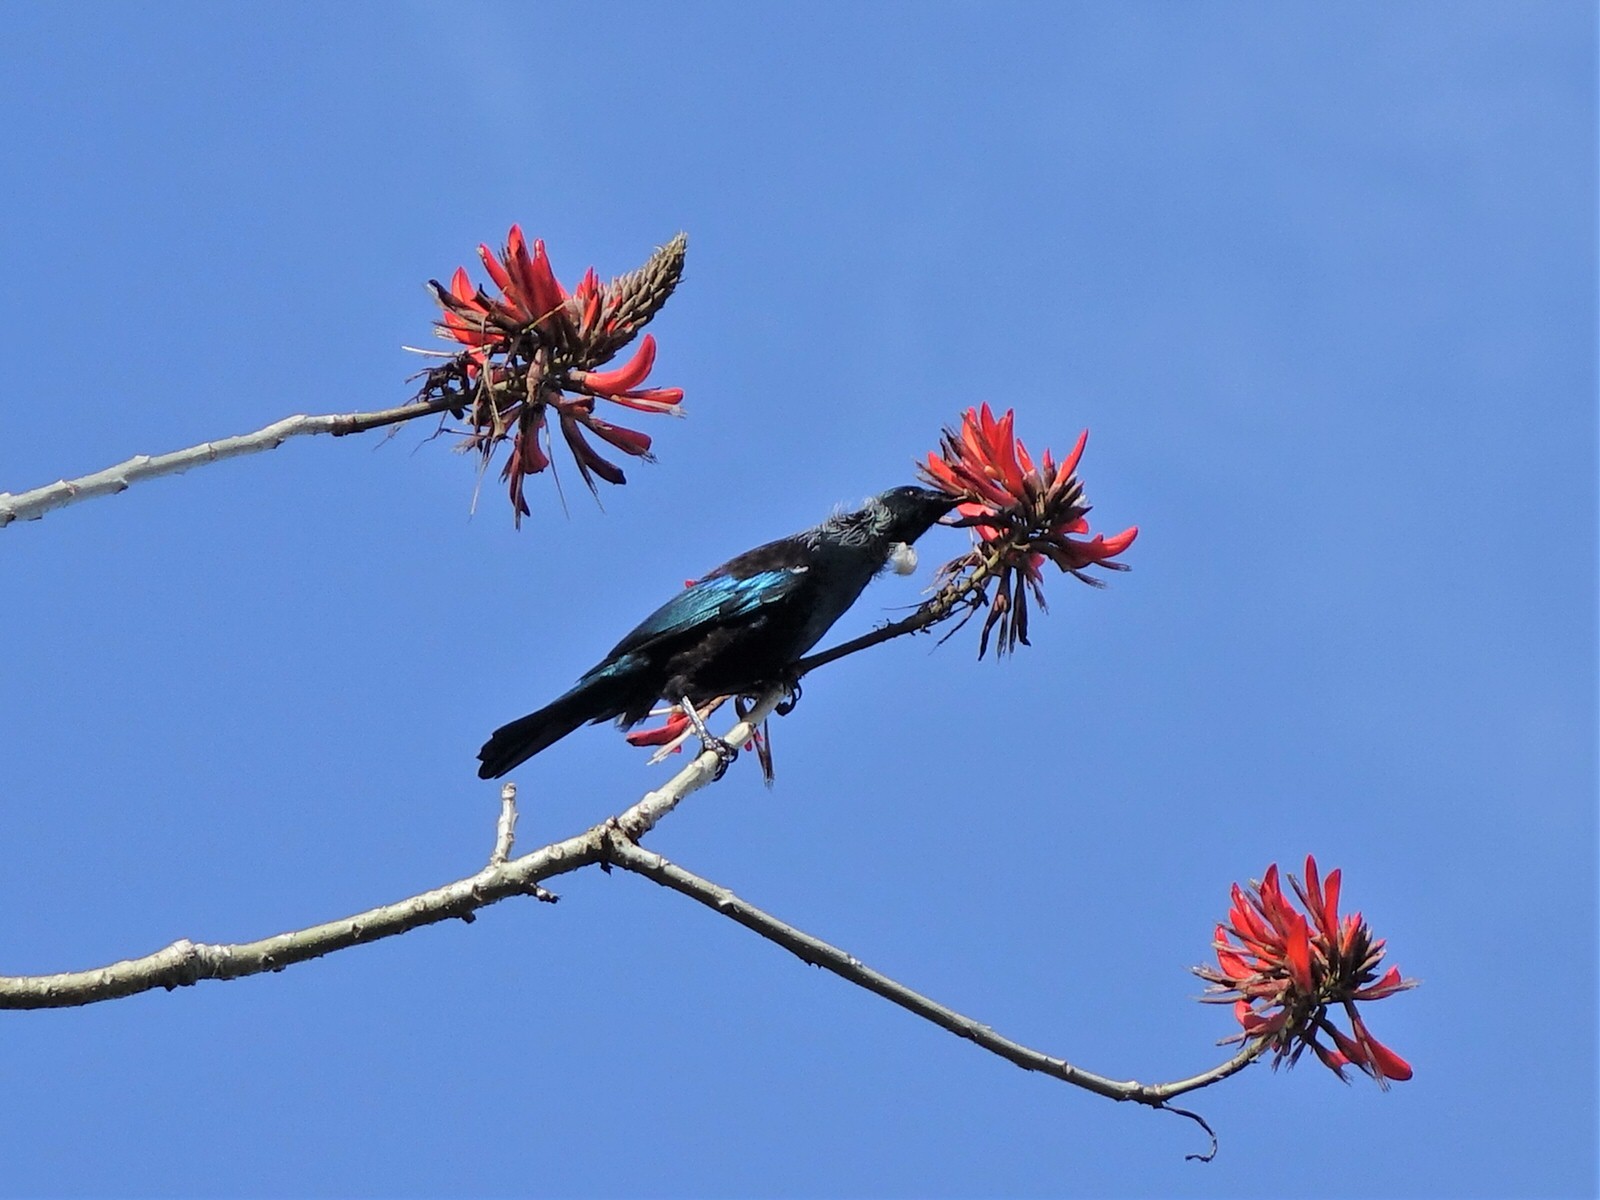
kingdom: Animalia
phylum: Chordata
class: Aves
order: Passeriformes
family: Meliphagidae
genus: Prosthemadera
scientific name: Prosthemadera novaeseelandiae
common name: Tui
